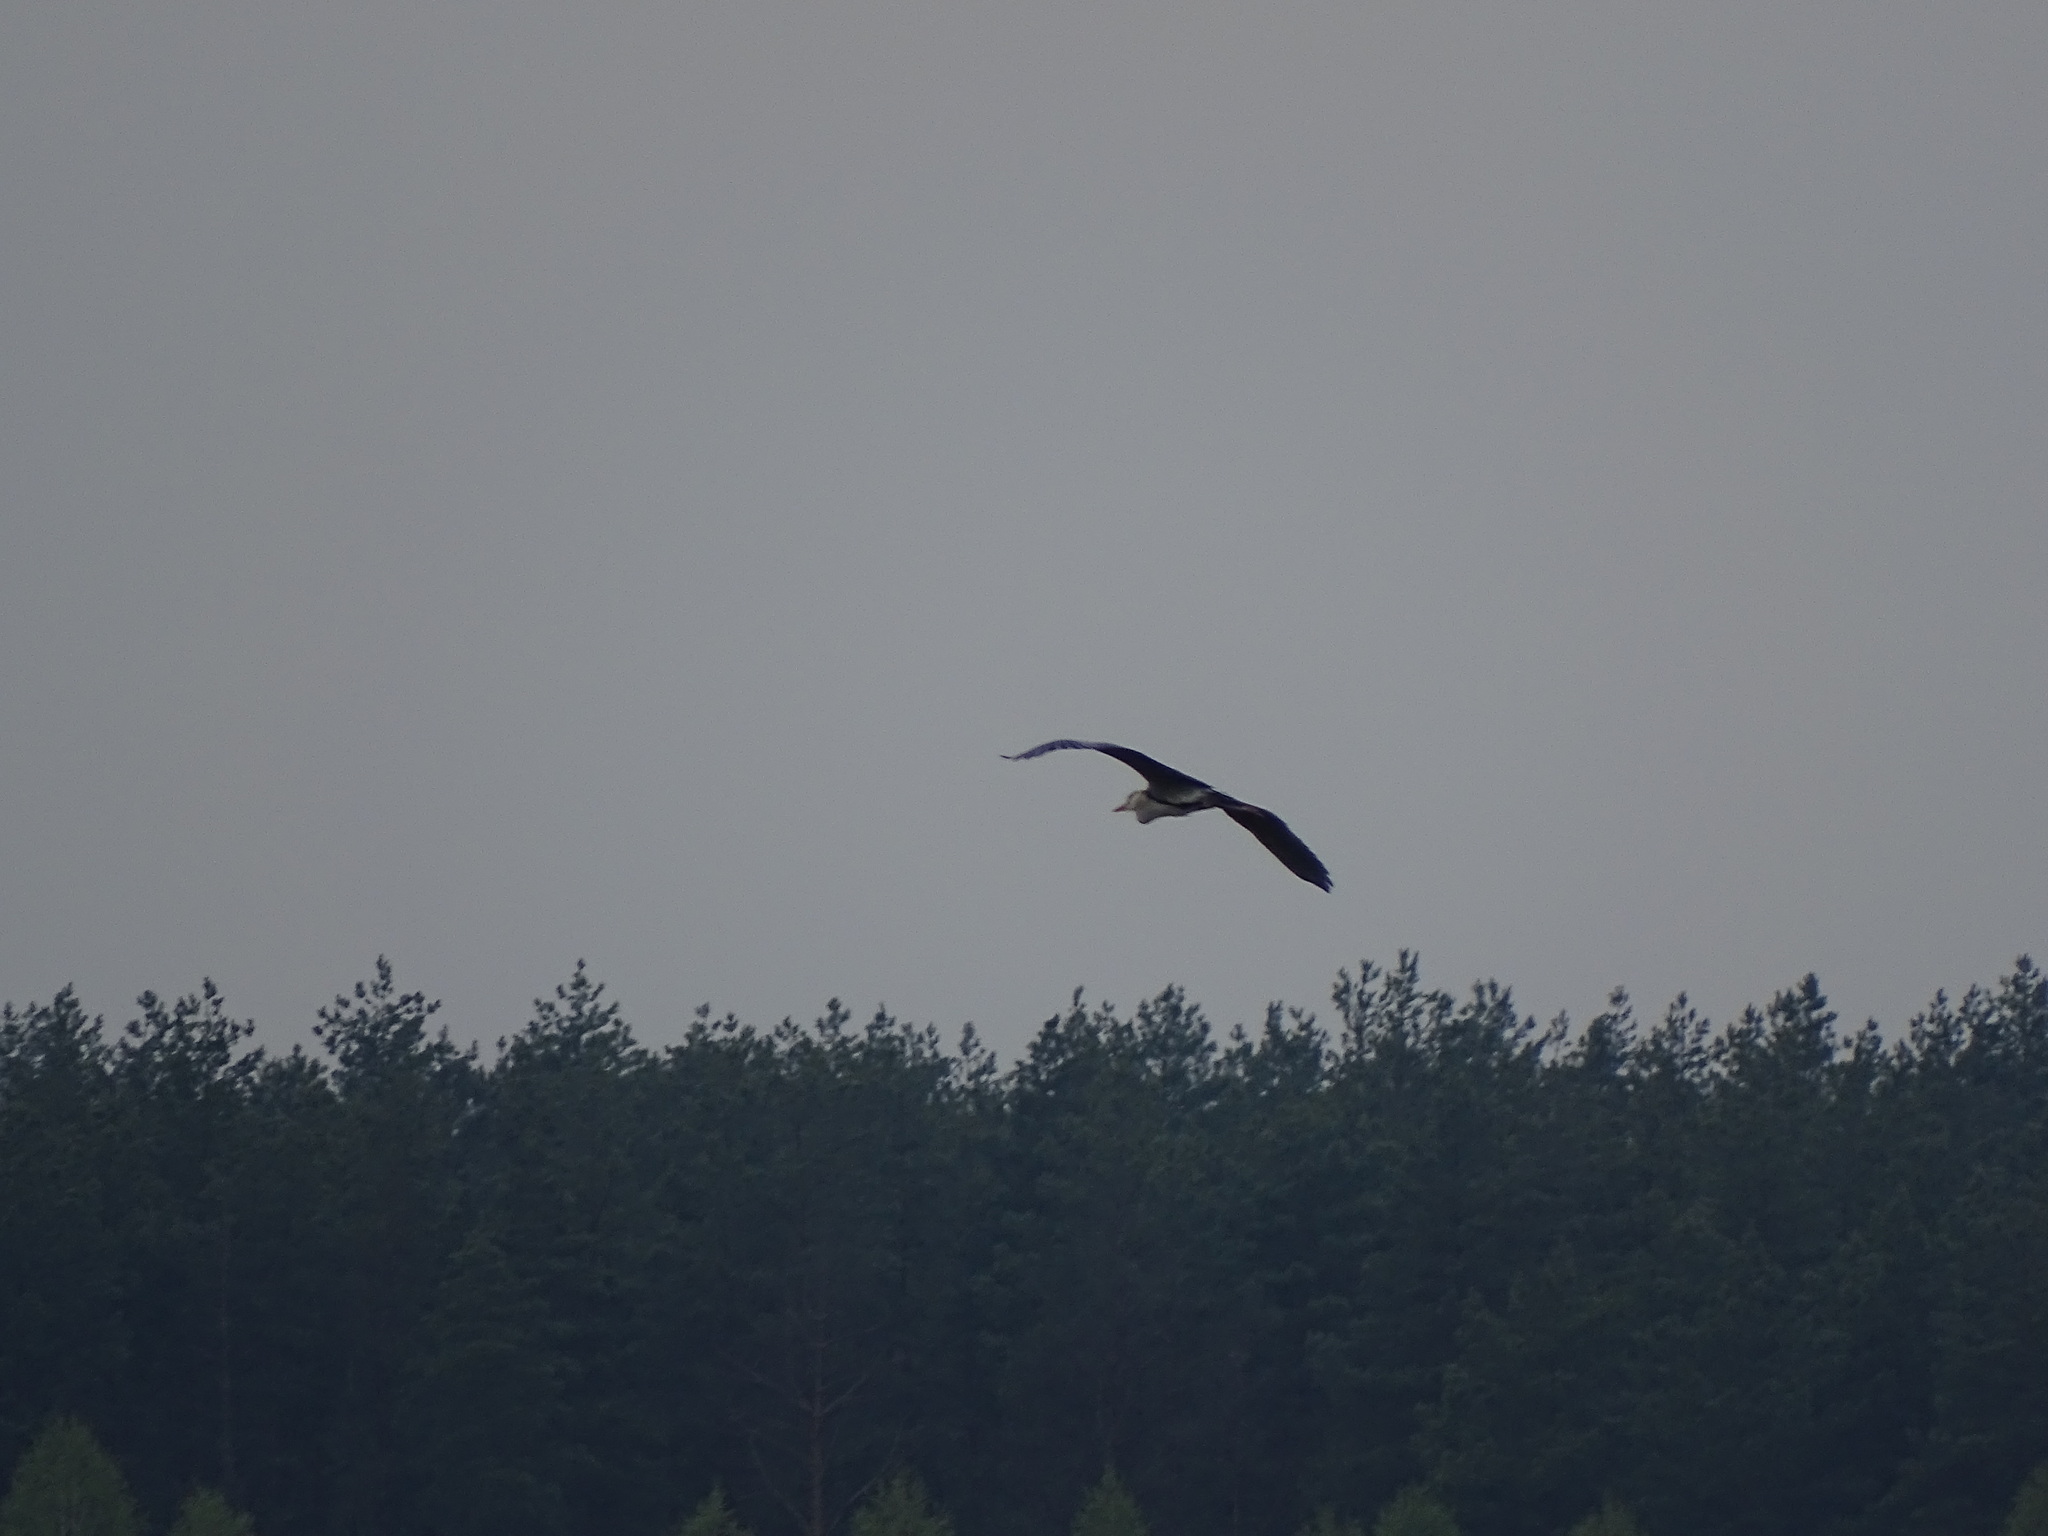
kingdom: Animalia
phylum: Chordata
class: Aves
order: Pelecaniformes
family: Ardeidae
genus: Ardea
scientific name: Ardea cinerea
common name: Grey heron
